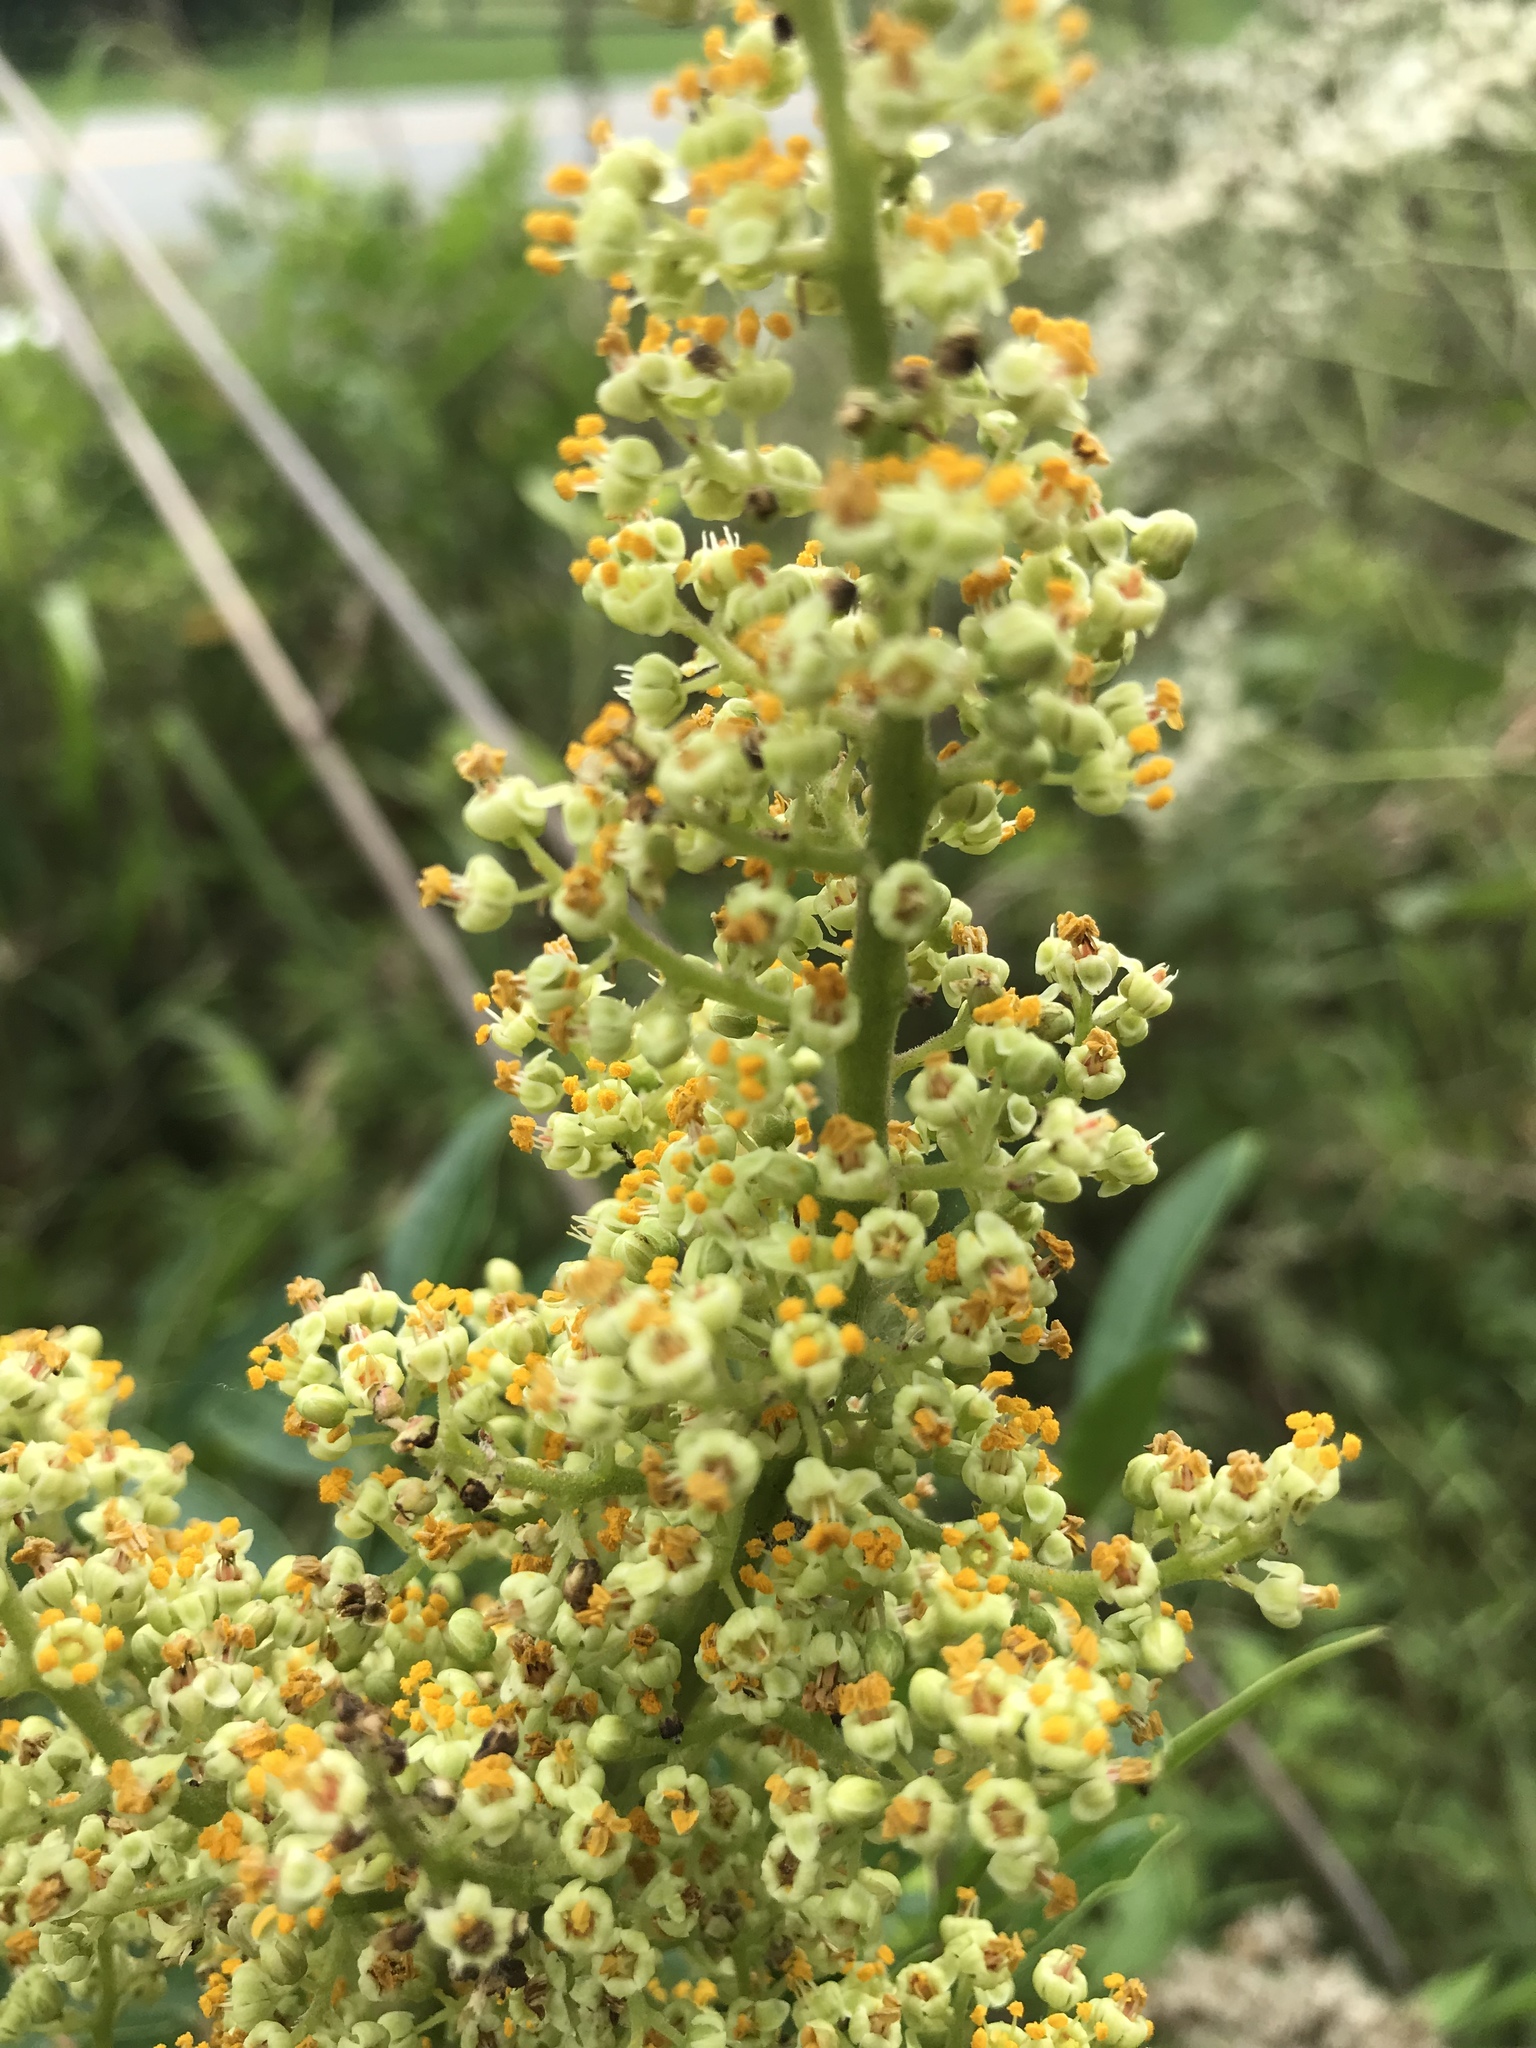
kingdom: Plantae
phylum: Tracheophyta
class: Magnoliopsida
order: Sapindales
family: Anacardiaceae
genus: Rhus
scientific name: Rhus copallina
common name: Shining sumac
